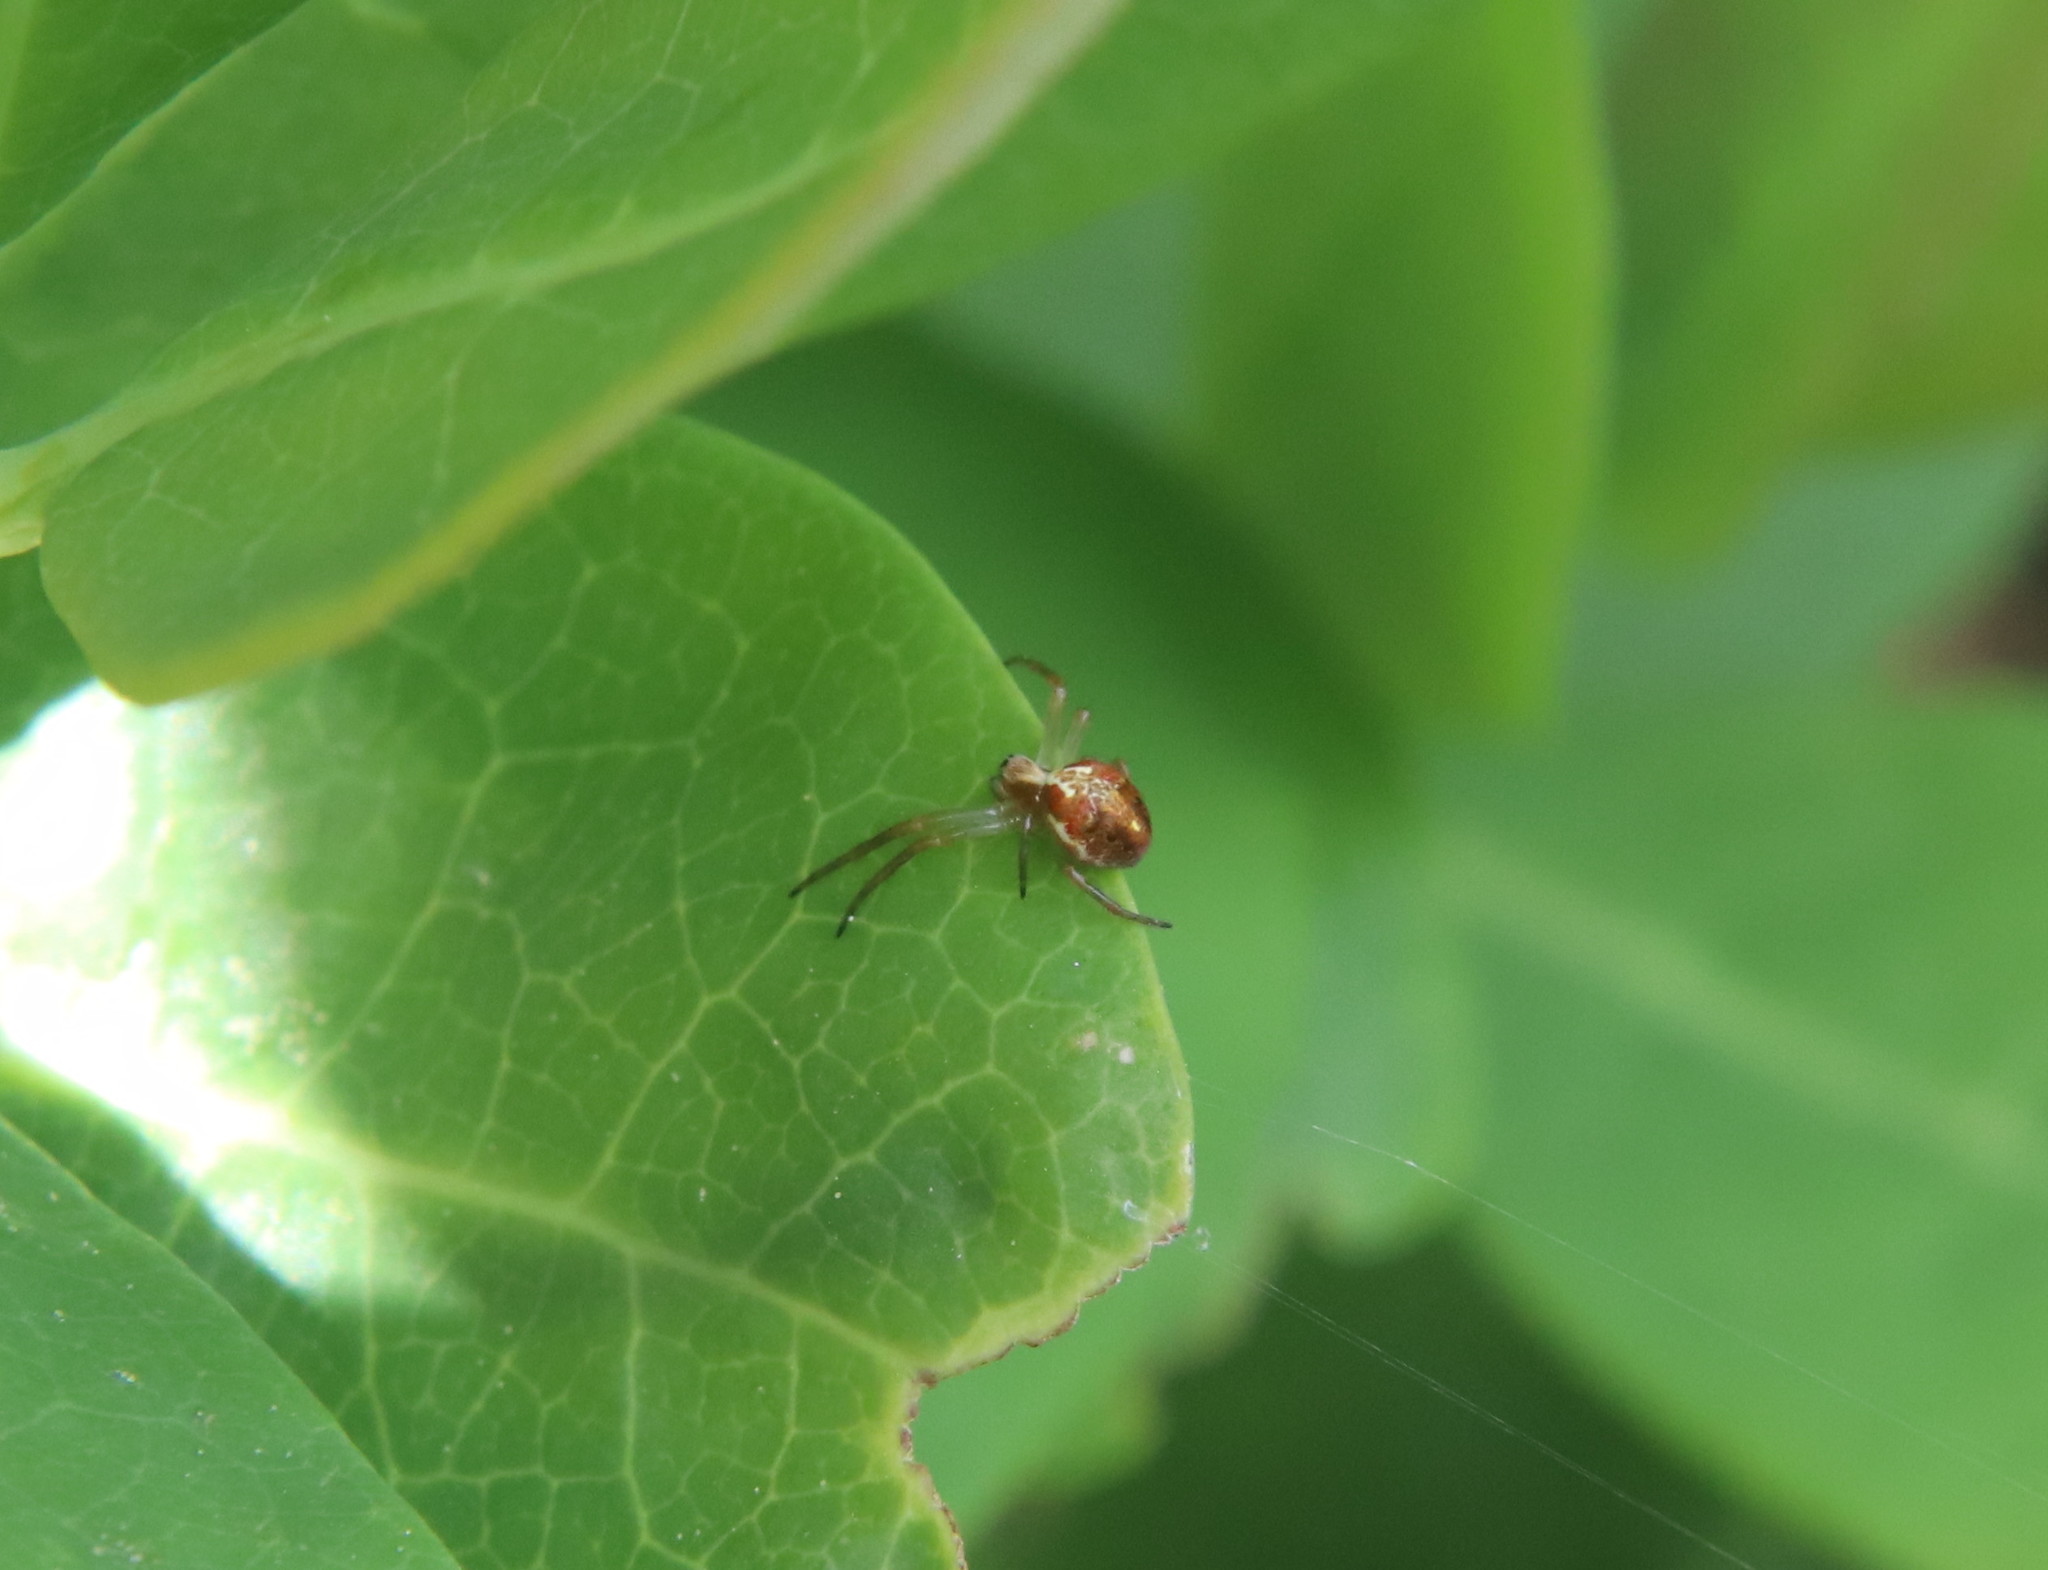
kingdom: Animalia
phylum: Arthropoda
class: Arachnida
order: Araneae
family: Araneidae
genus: Novaranea
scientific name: Novaranea queribunda
